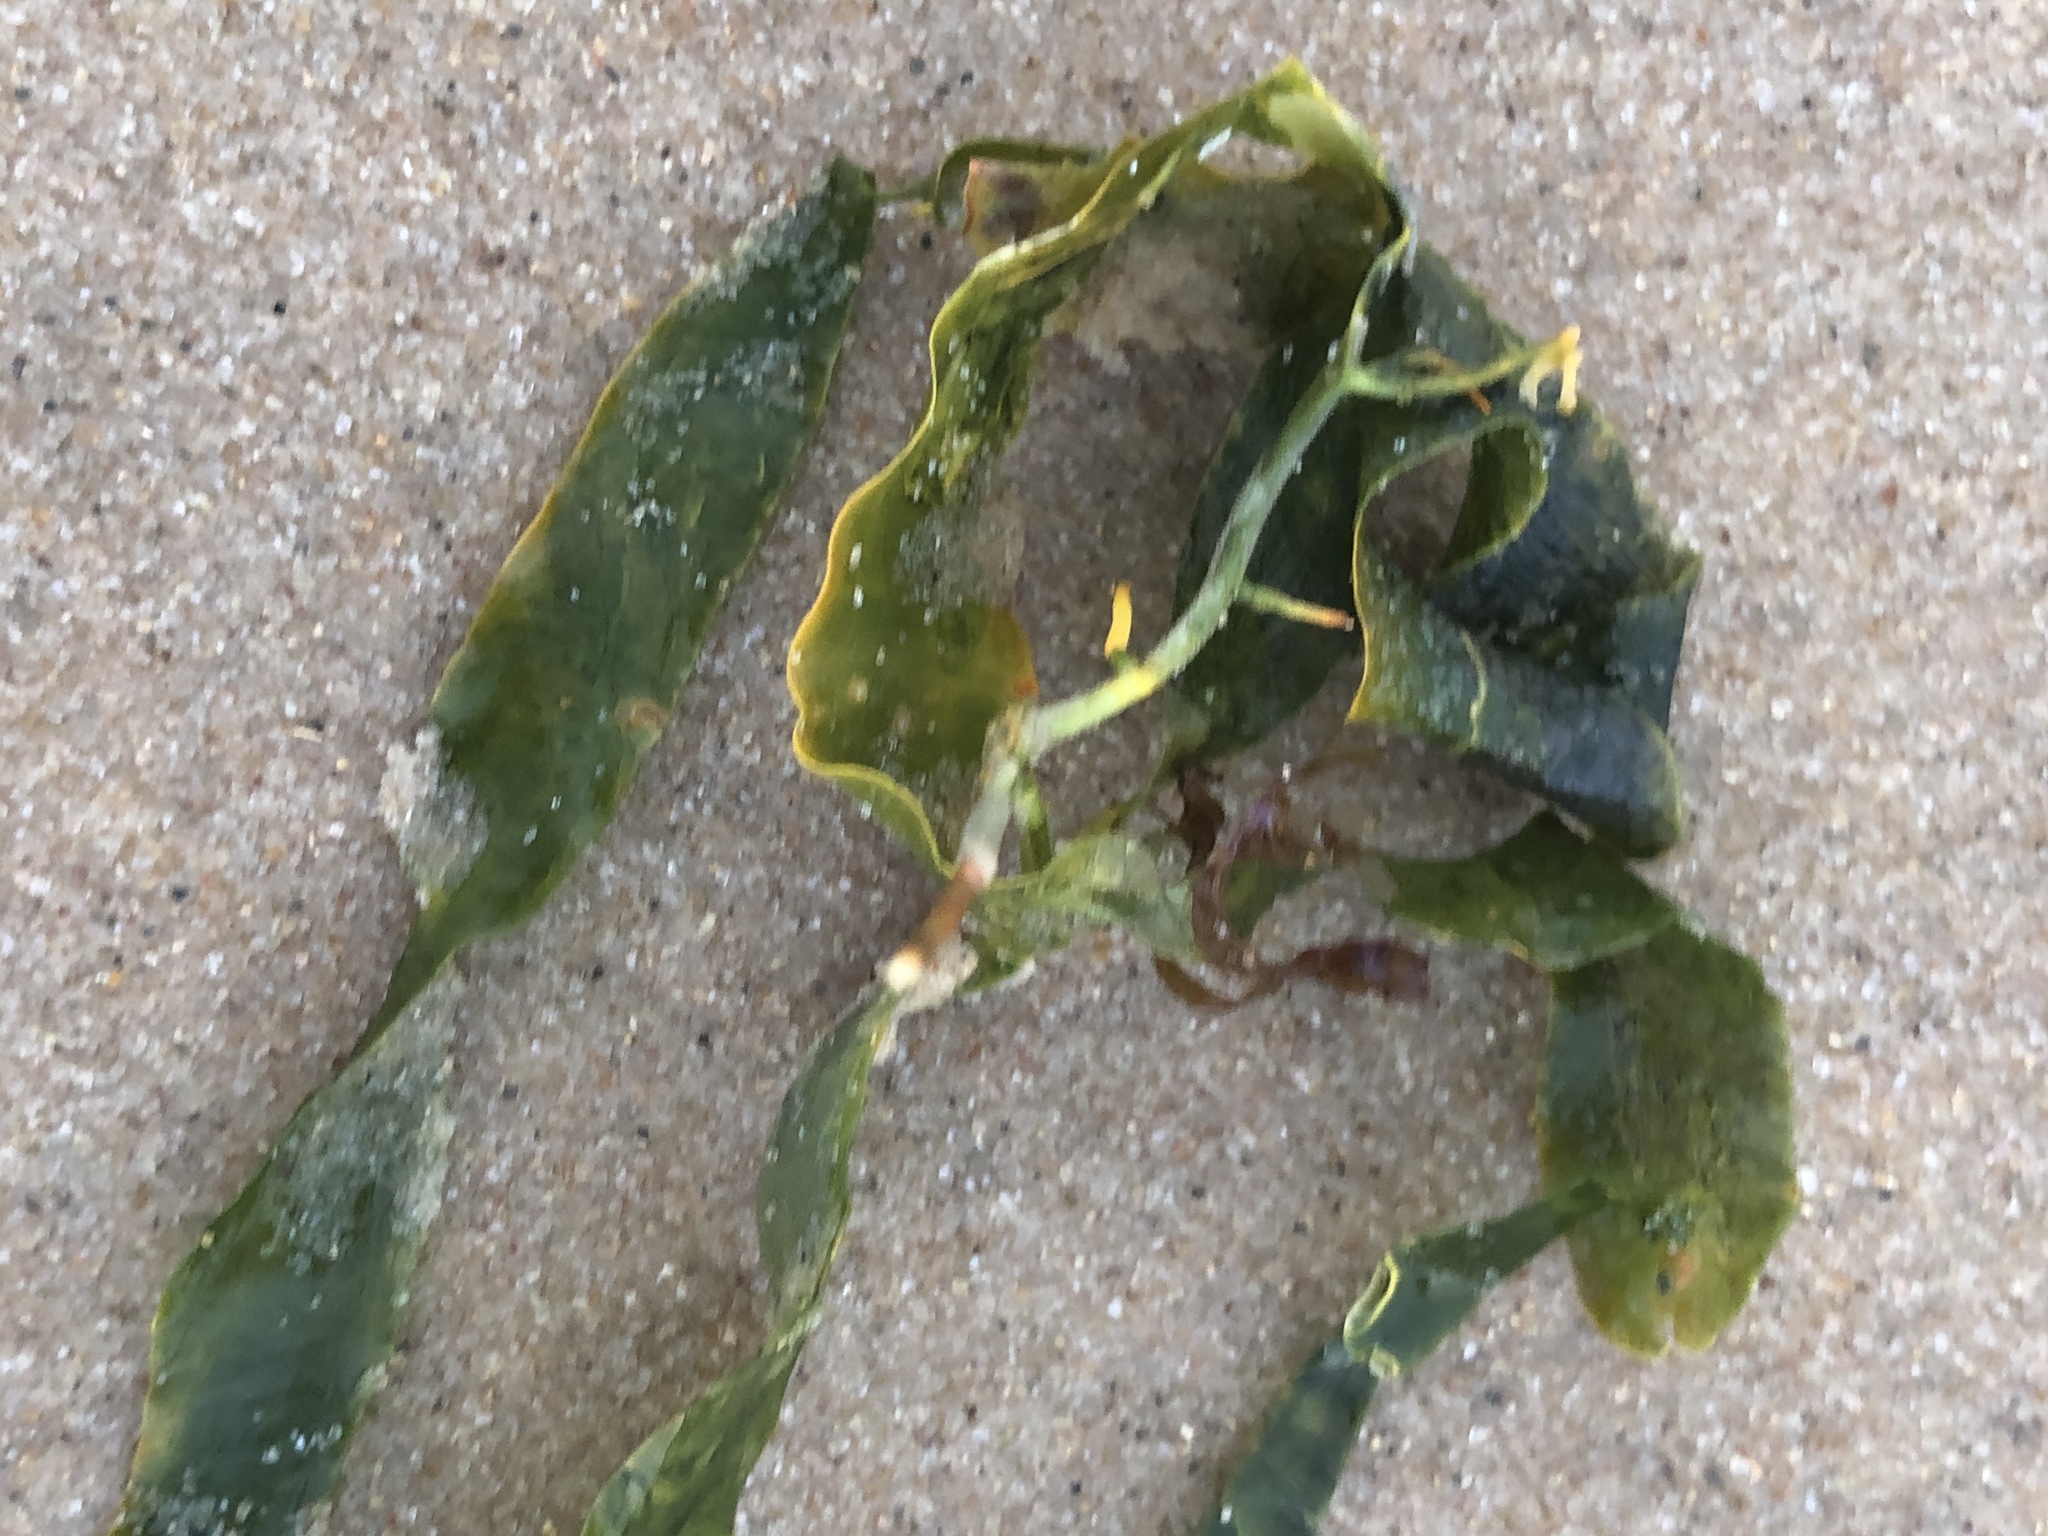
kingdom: Plantae
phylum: Chlorophyta
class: Ulvophyceae
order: Bryopsidales
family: Caulerpaceae
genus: Caulerpa
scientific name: Caulerpa prolifera
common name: Oval-blade algae
